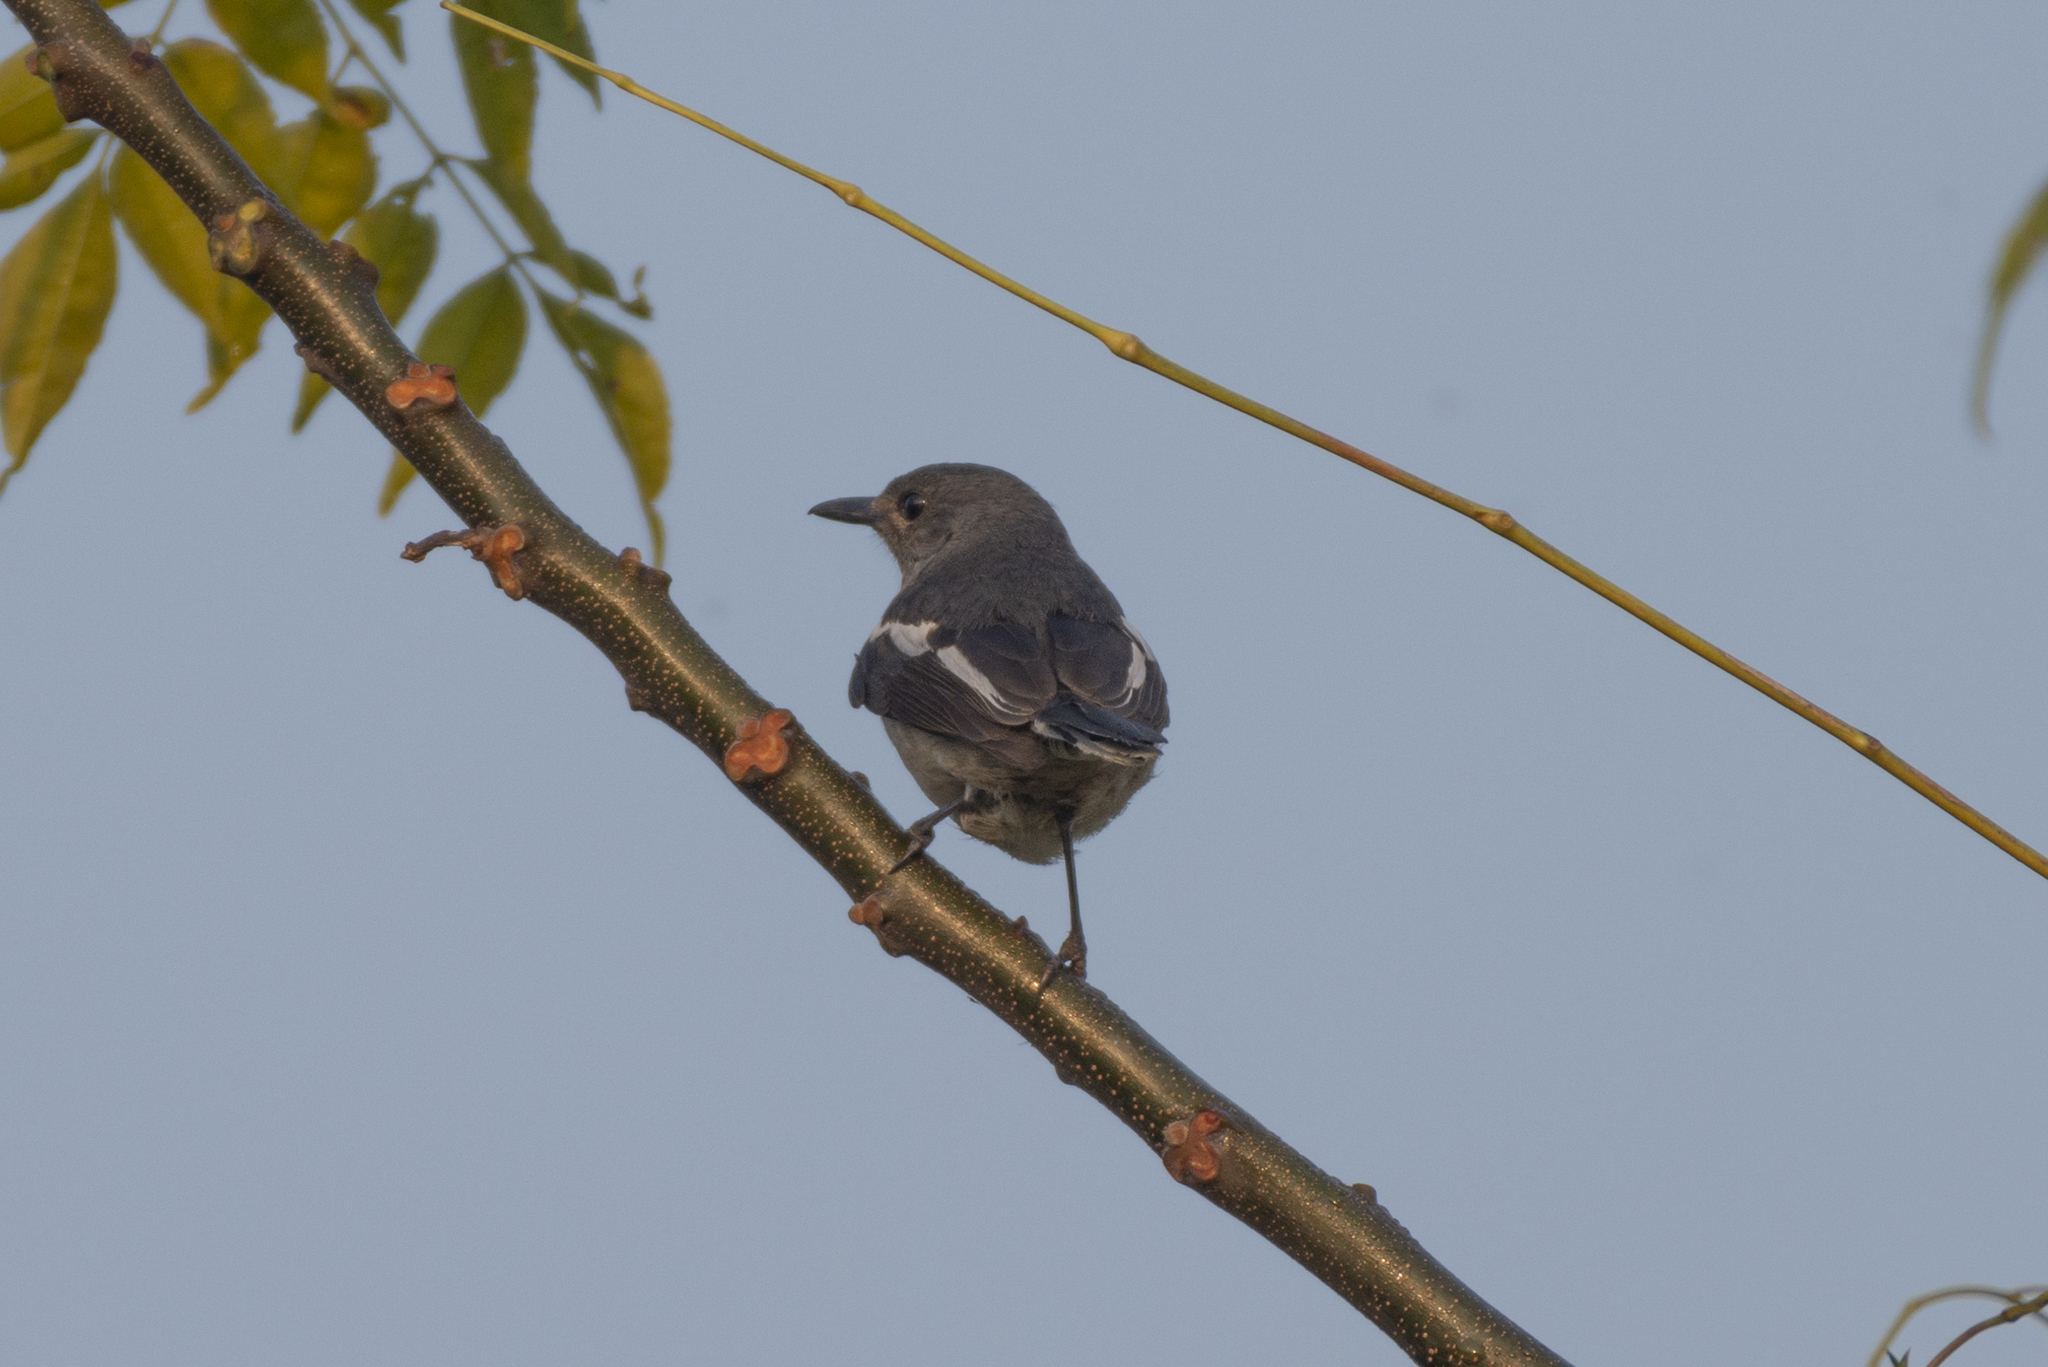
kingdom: Animalia
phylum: Chordata
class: Aves
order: Passeriformes
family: Muscicapidae
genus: Copsychus
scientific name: Copsychus saularis
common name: Oriental magpie-robin
